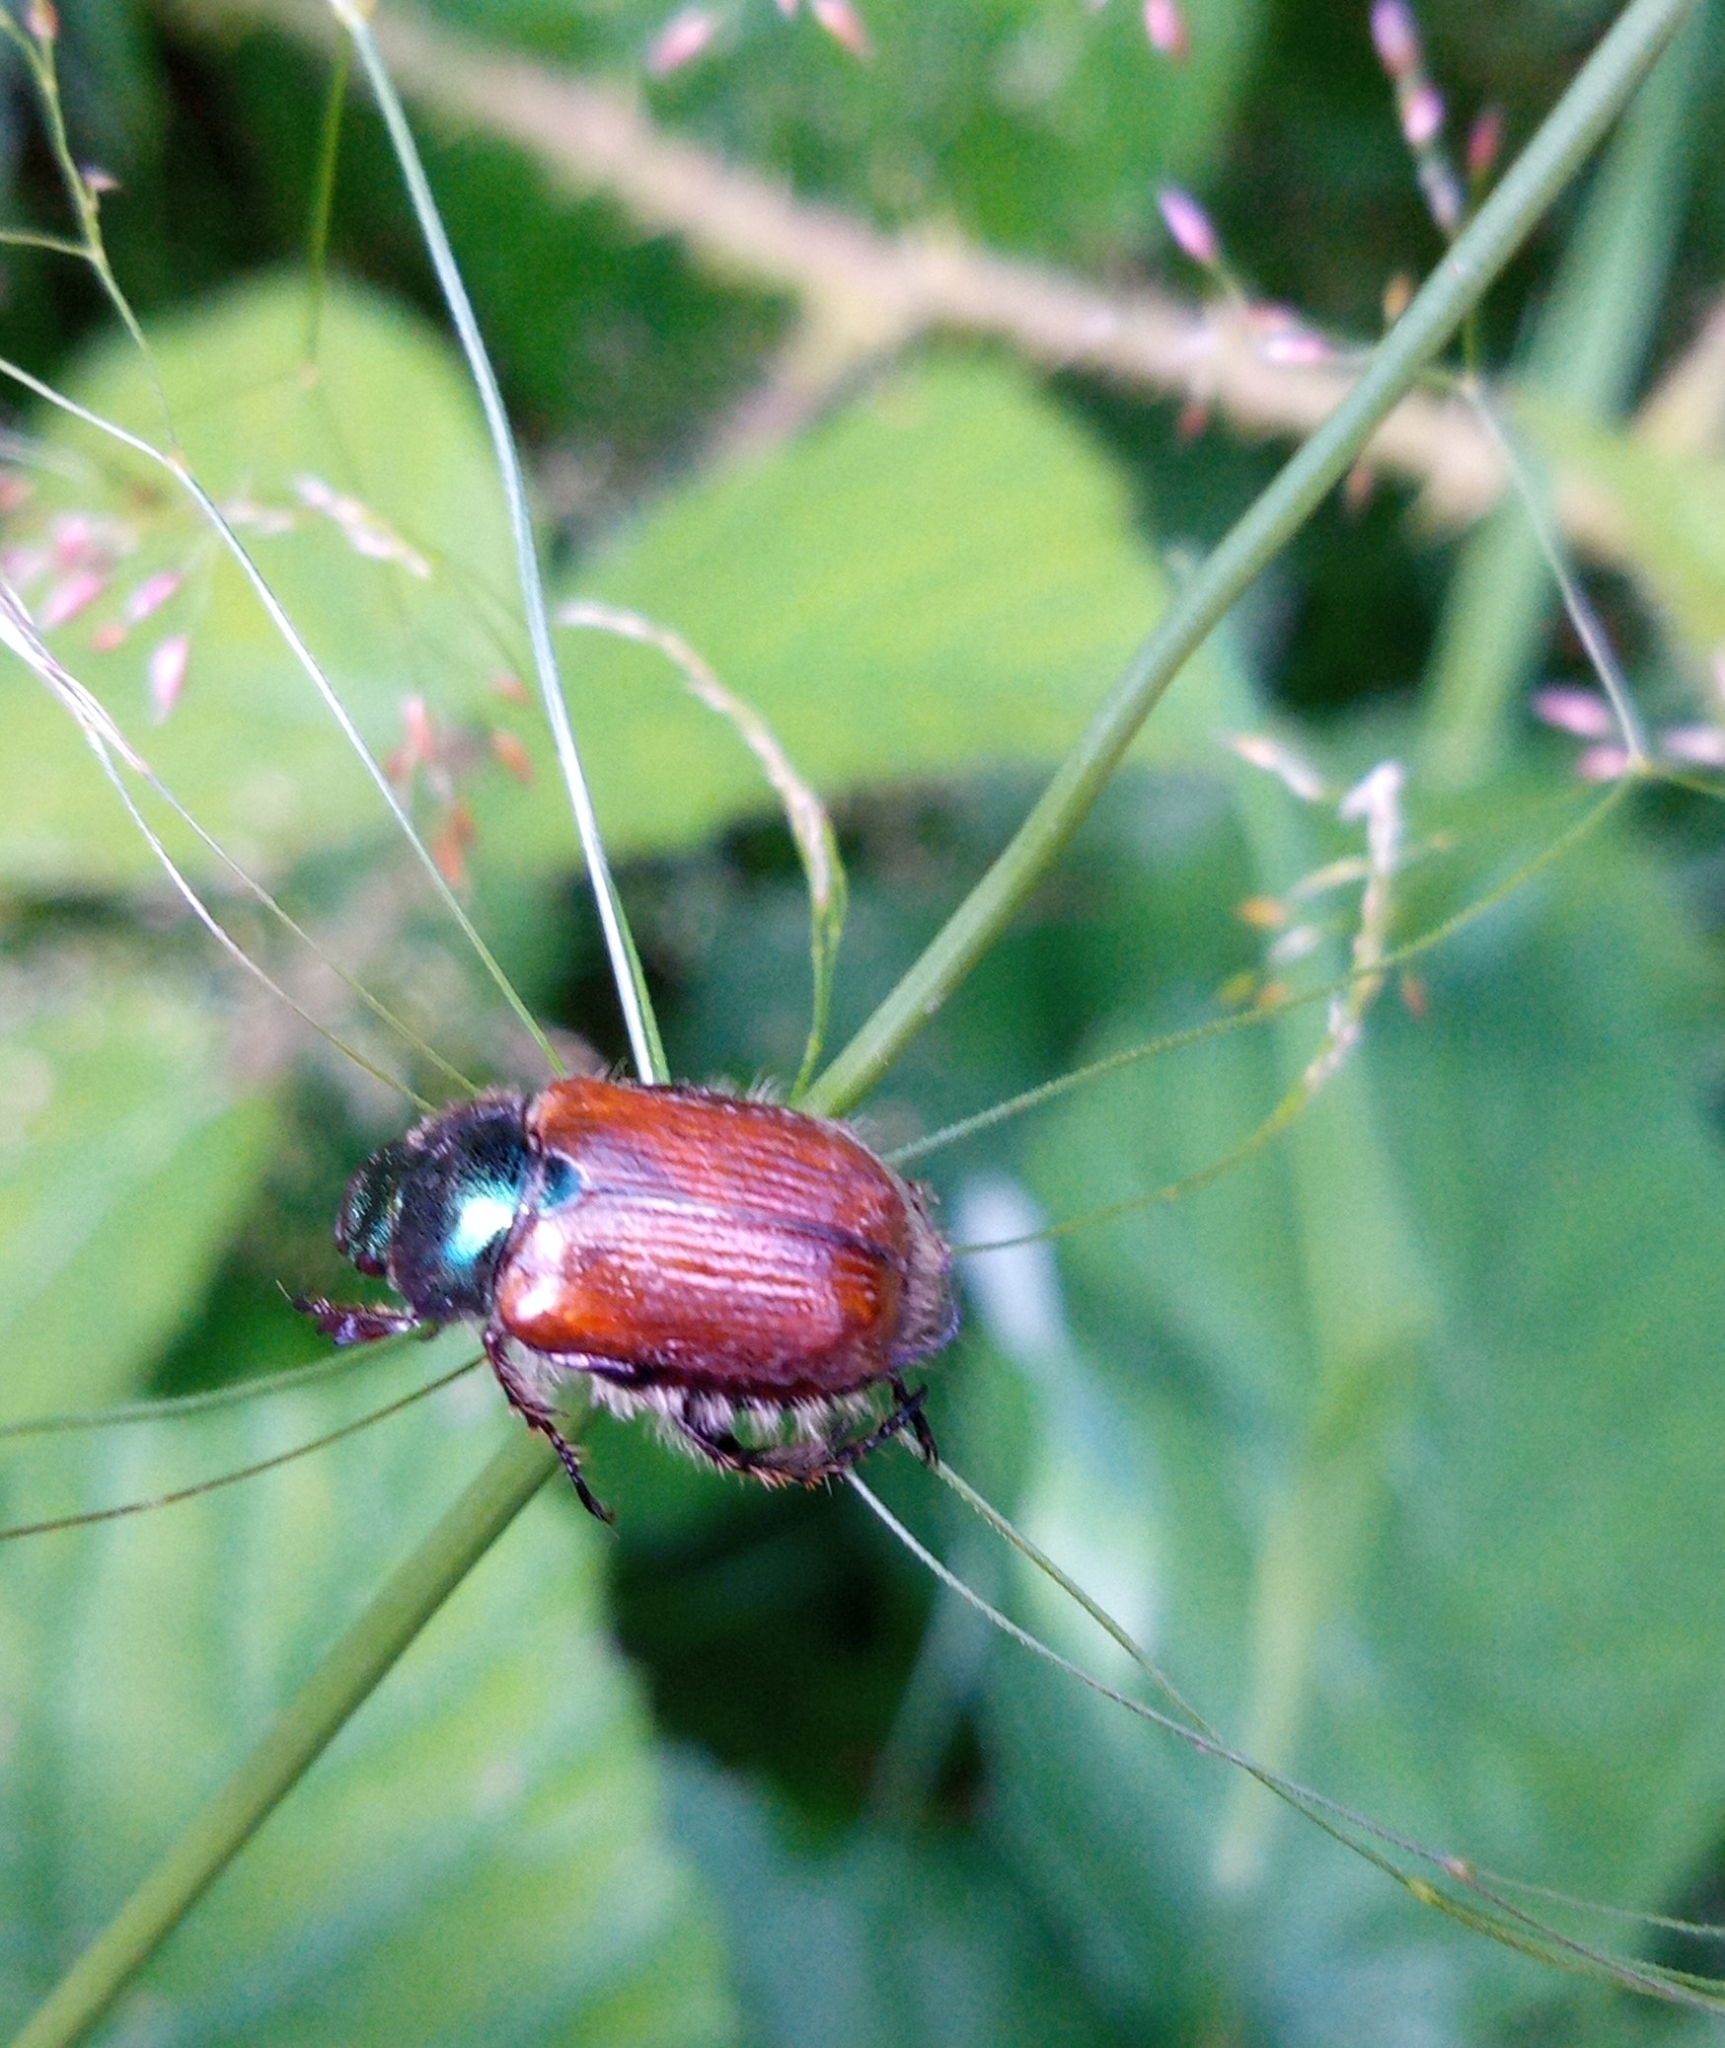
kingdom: Animalia
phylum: Arthropoda
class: Insecta
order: Coleoptera
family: Scarabaeidae
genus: Phyllopertha
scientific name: Phyllopertha horticola
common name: Garden chafer
